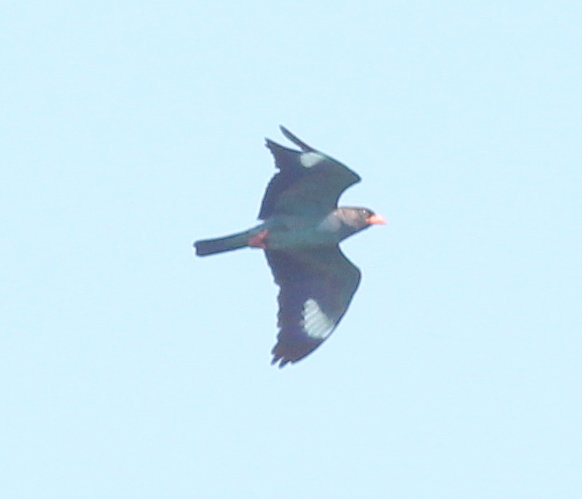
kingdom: Animalia
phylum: Chordata
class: Aves
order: Coraciiformes
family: Coraciidae
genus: Eurystomus
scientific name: Eurystomus orientalis
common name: Oriental dollarbird
